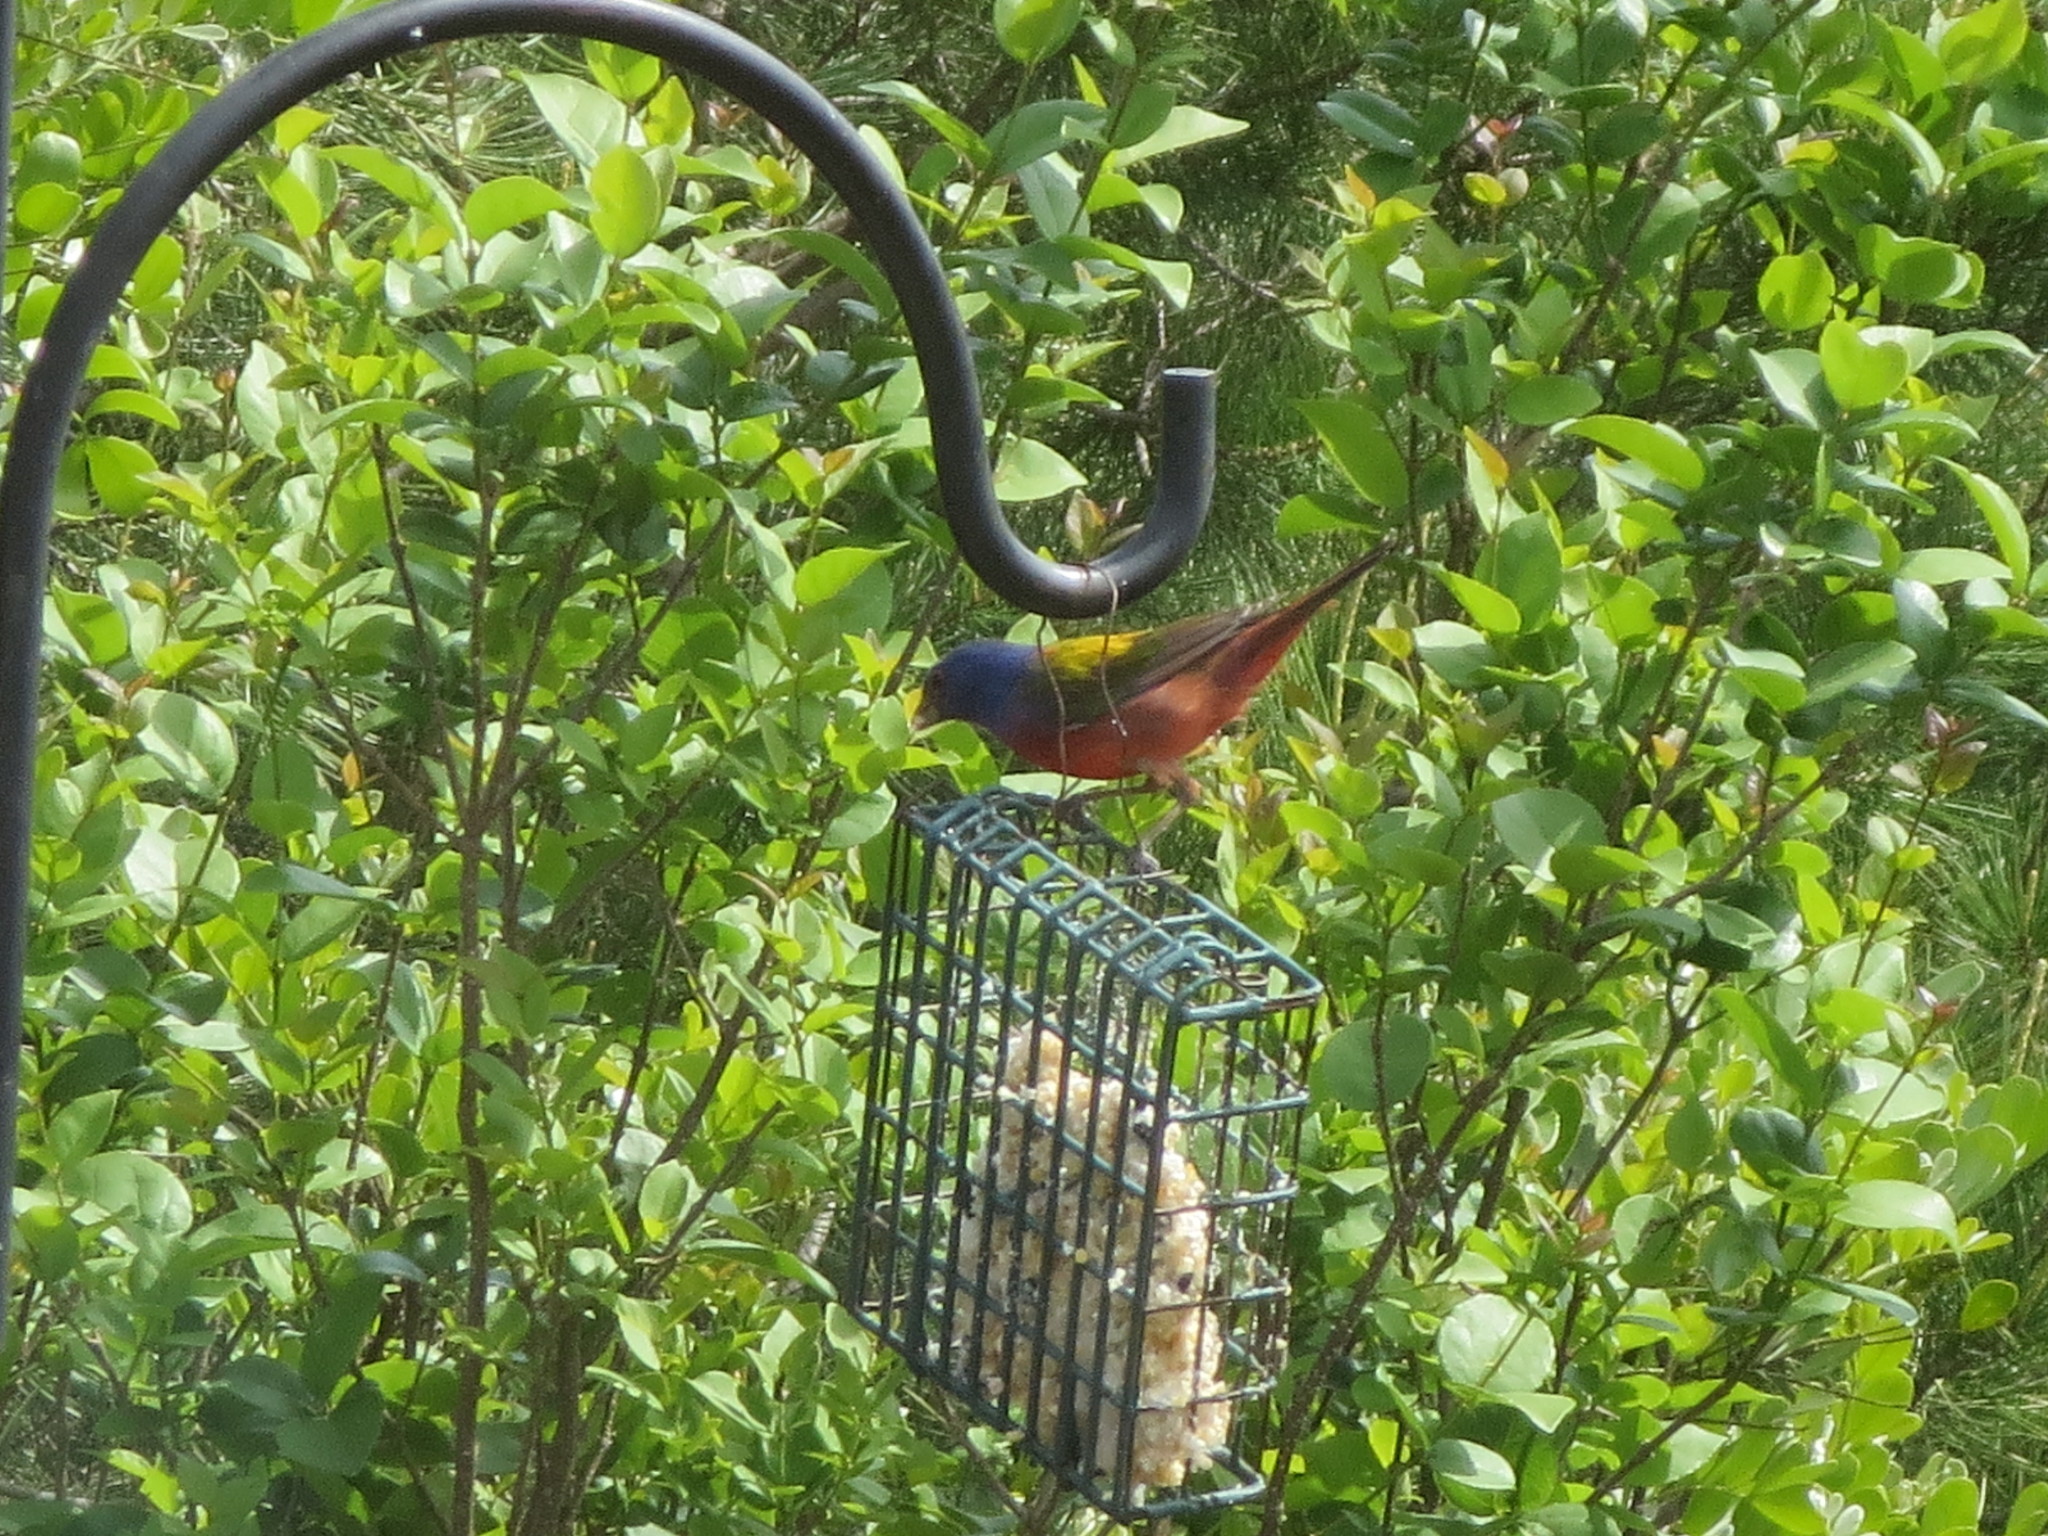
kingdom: Animalia
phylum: Chordata
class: Aves
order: Passeriformes
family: Cardinalidae
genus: Passerina
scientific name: Passerina ciris
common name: Painted bunting
